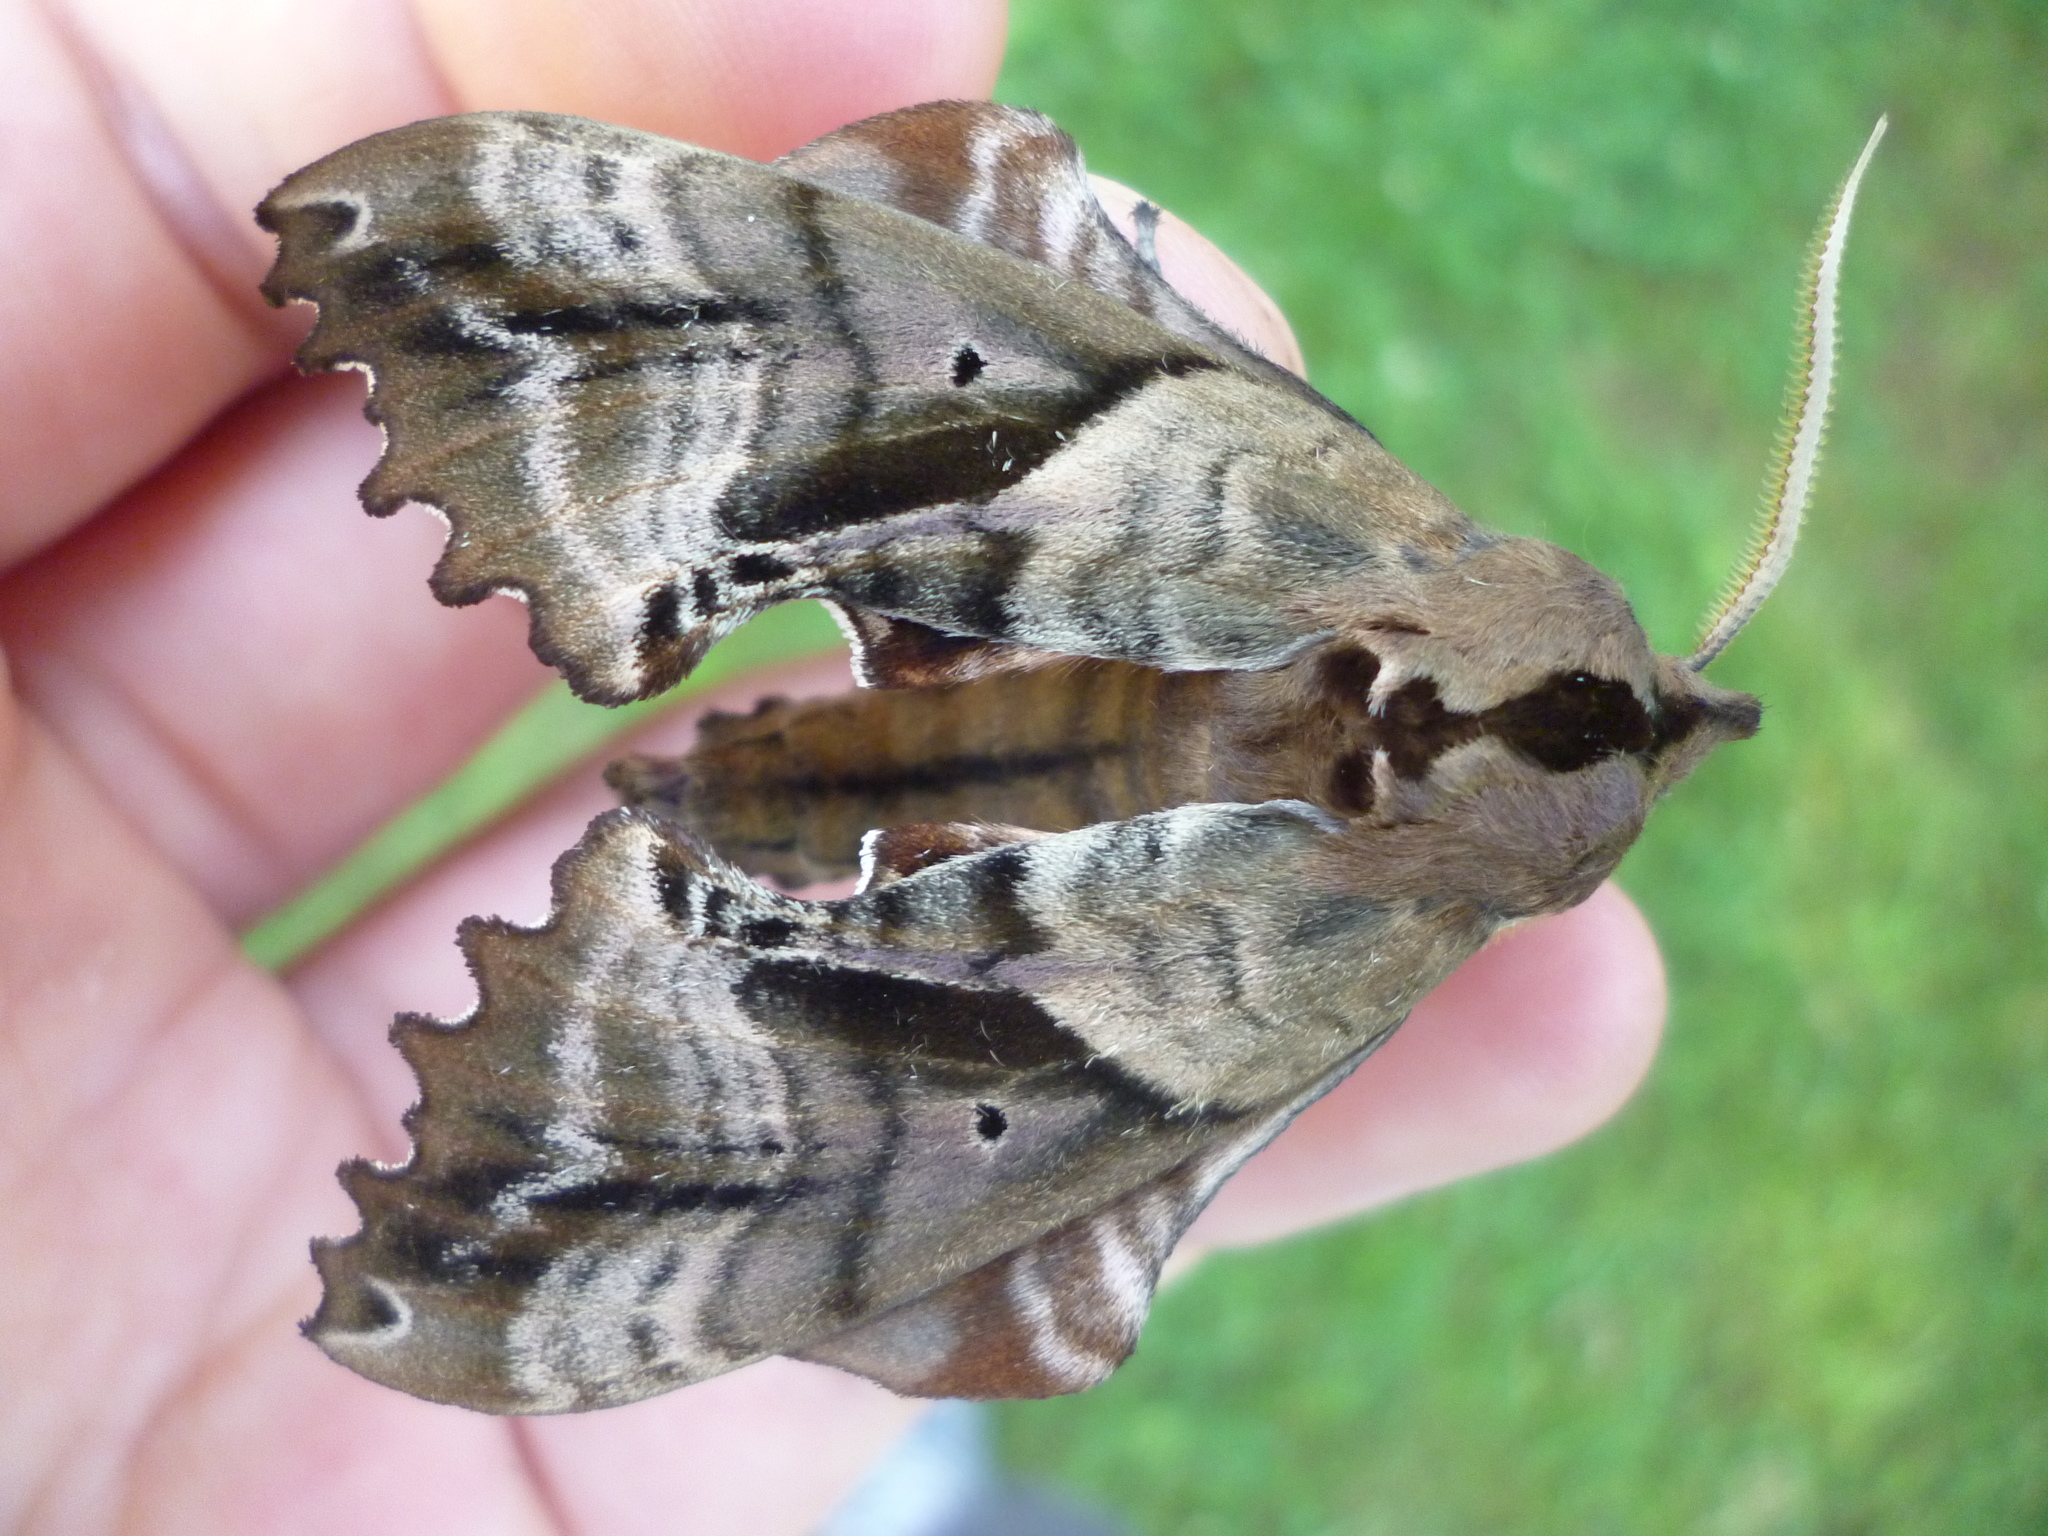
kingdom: Animalia
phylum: Arthropoda
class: Insecta
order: Lepidoptera
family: Sphingidae
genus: Paonias
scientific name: Paonias excaecata
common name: Blind-eyed sphinx
